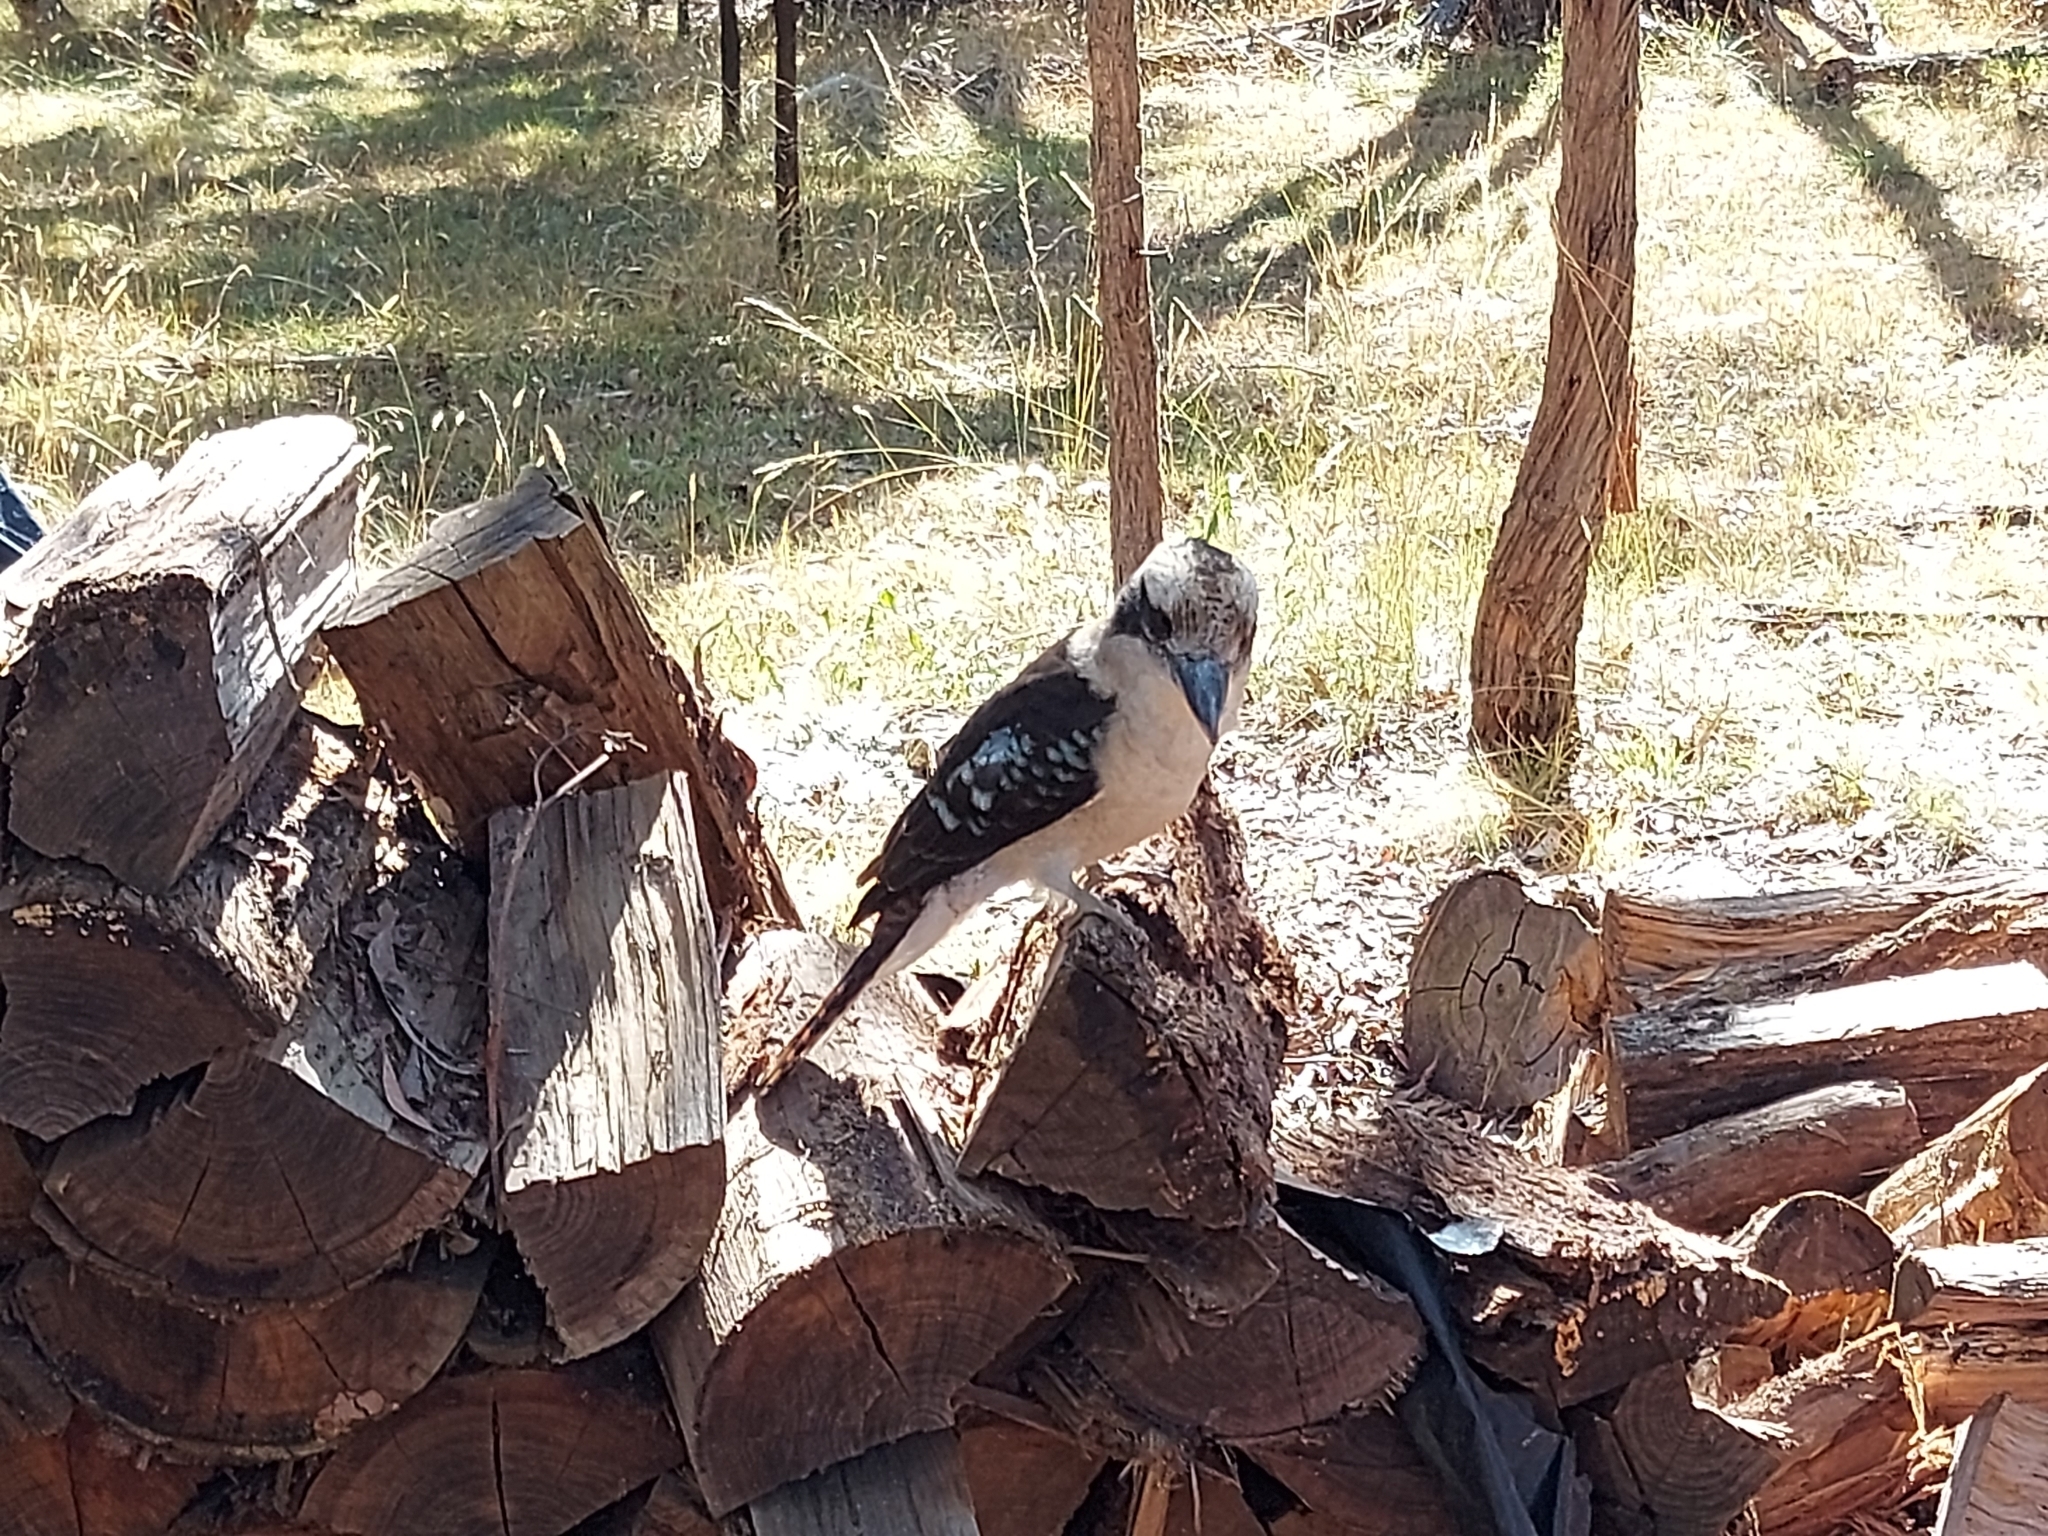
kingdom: Animalia
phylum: Chordata
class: Aves
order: Coraciiformes
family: Alcedinidae
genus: Dacelo
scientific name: Dacelo novaeguineae
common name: Laughing kookaburra
